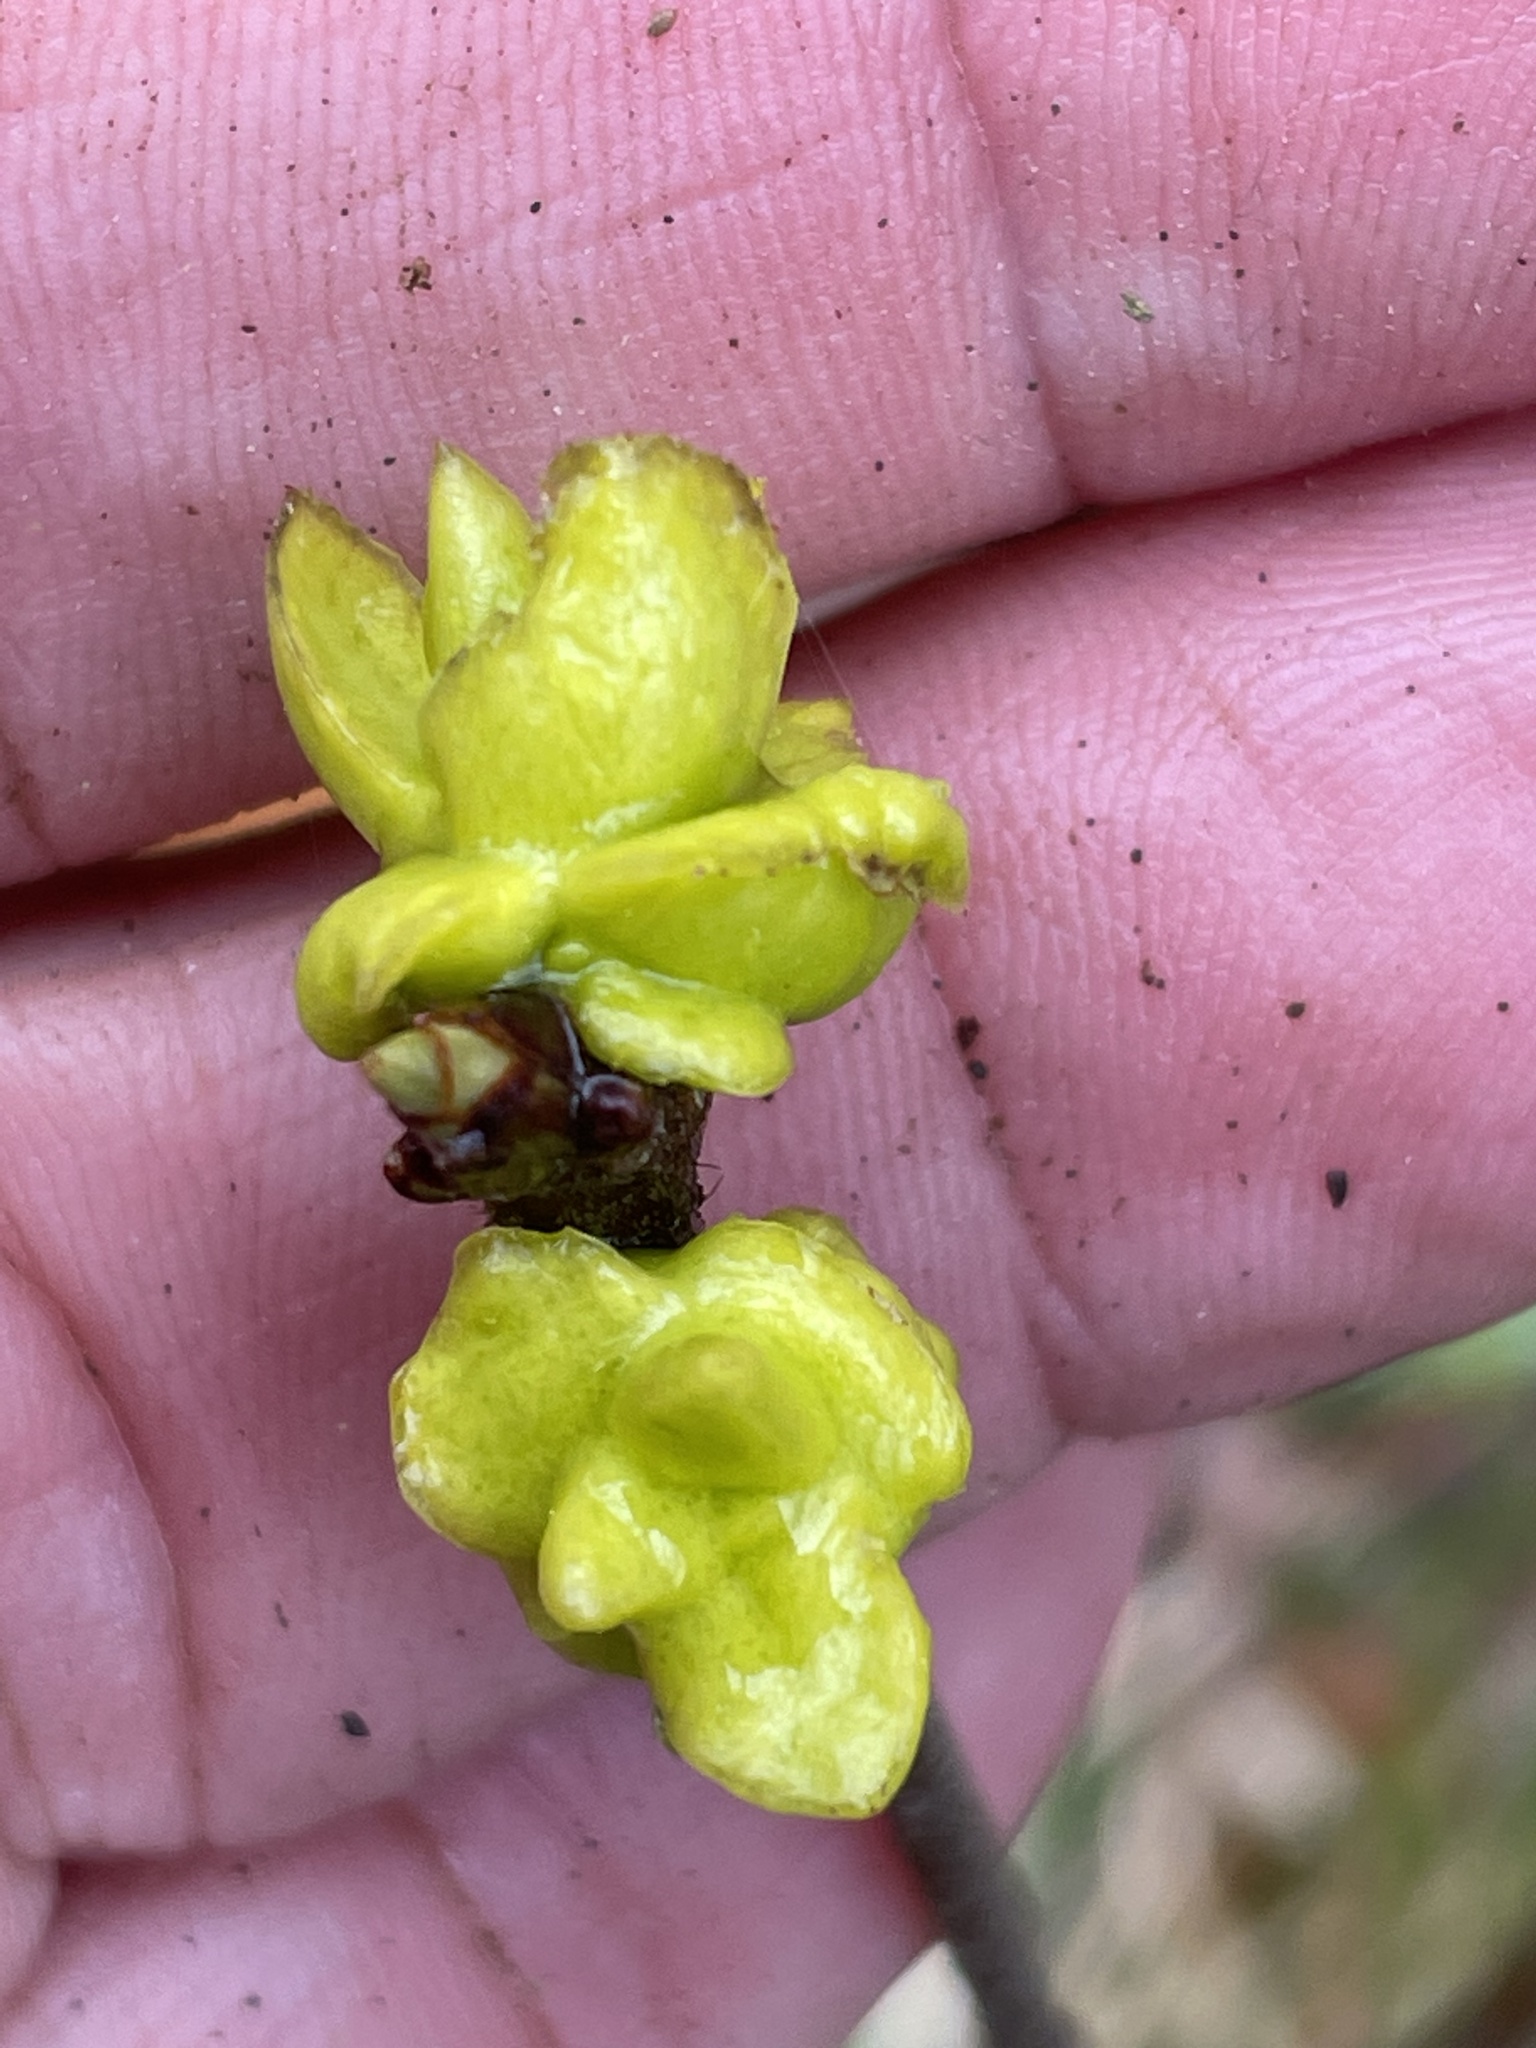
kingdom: Fungi
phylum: Basidiomycota
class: Exobasidiomycetes
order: Exobasidiales
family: Exobasidiaceae
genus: Exobasidium
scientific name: Exobasidium symploci
